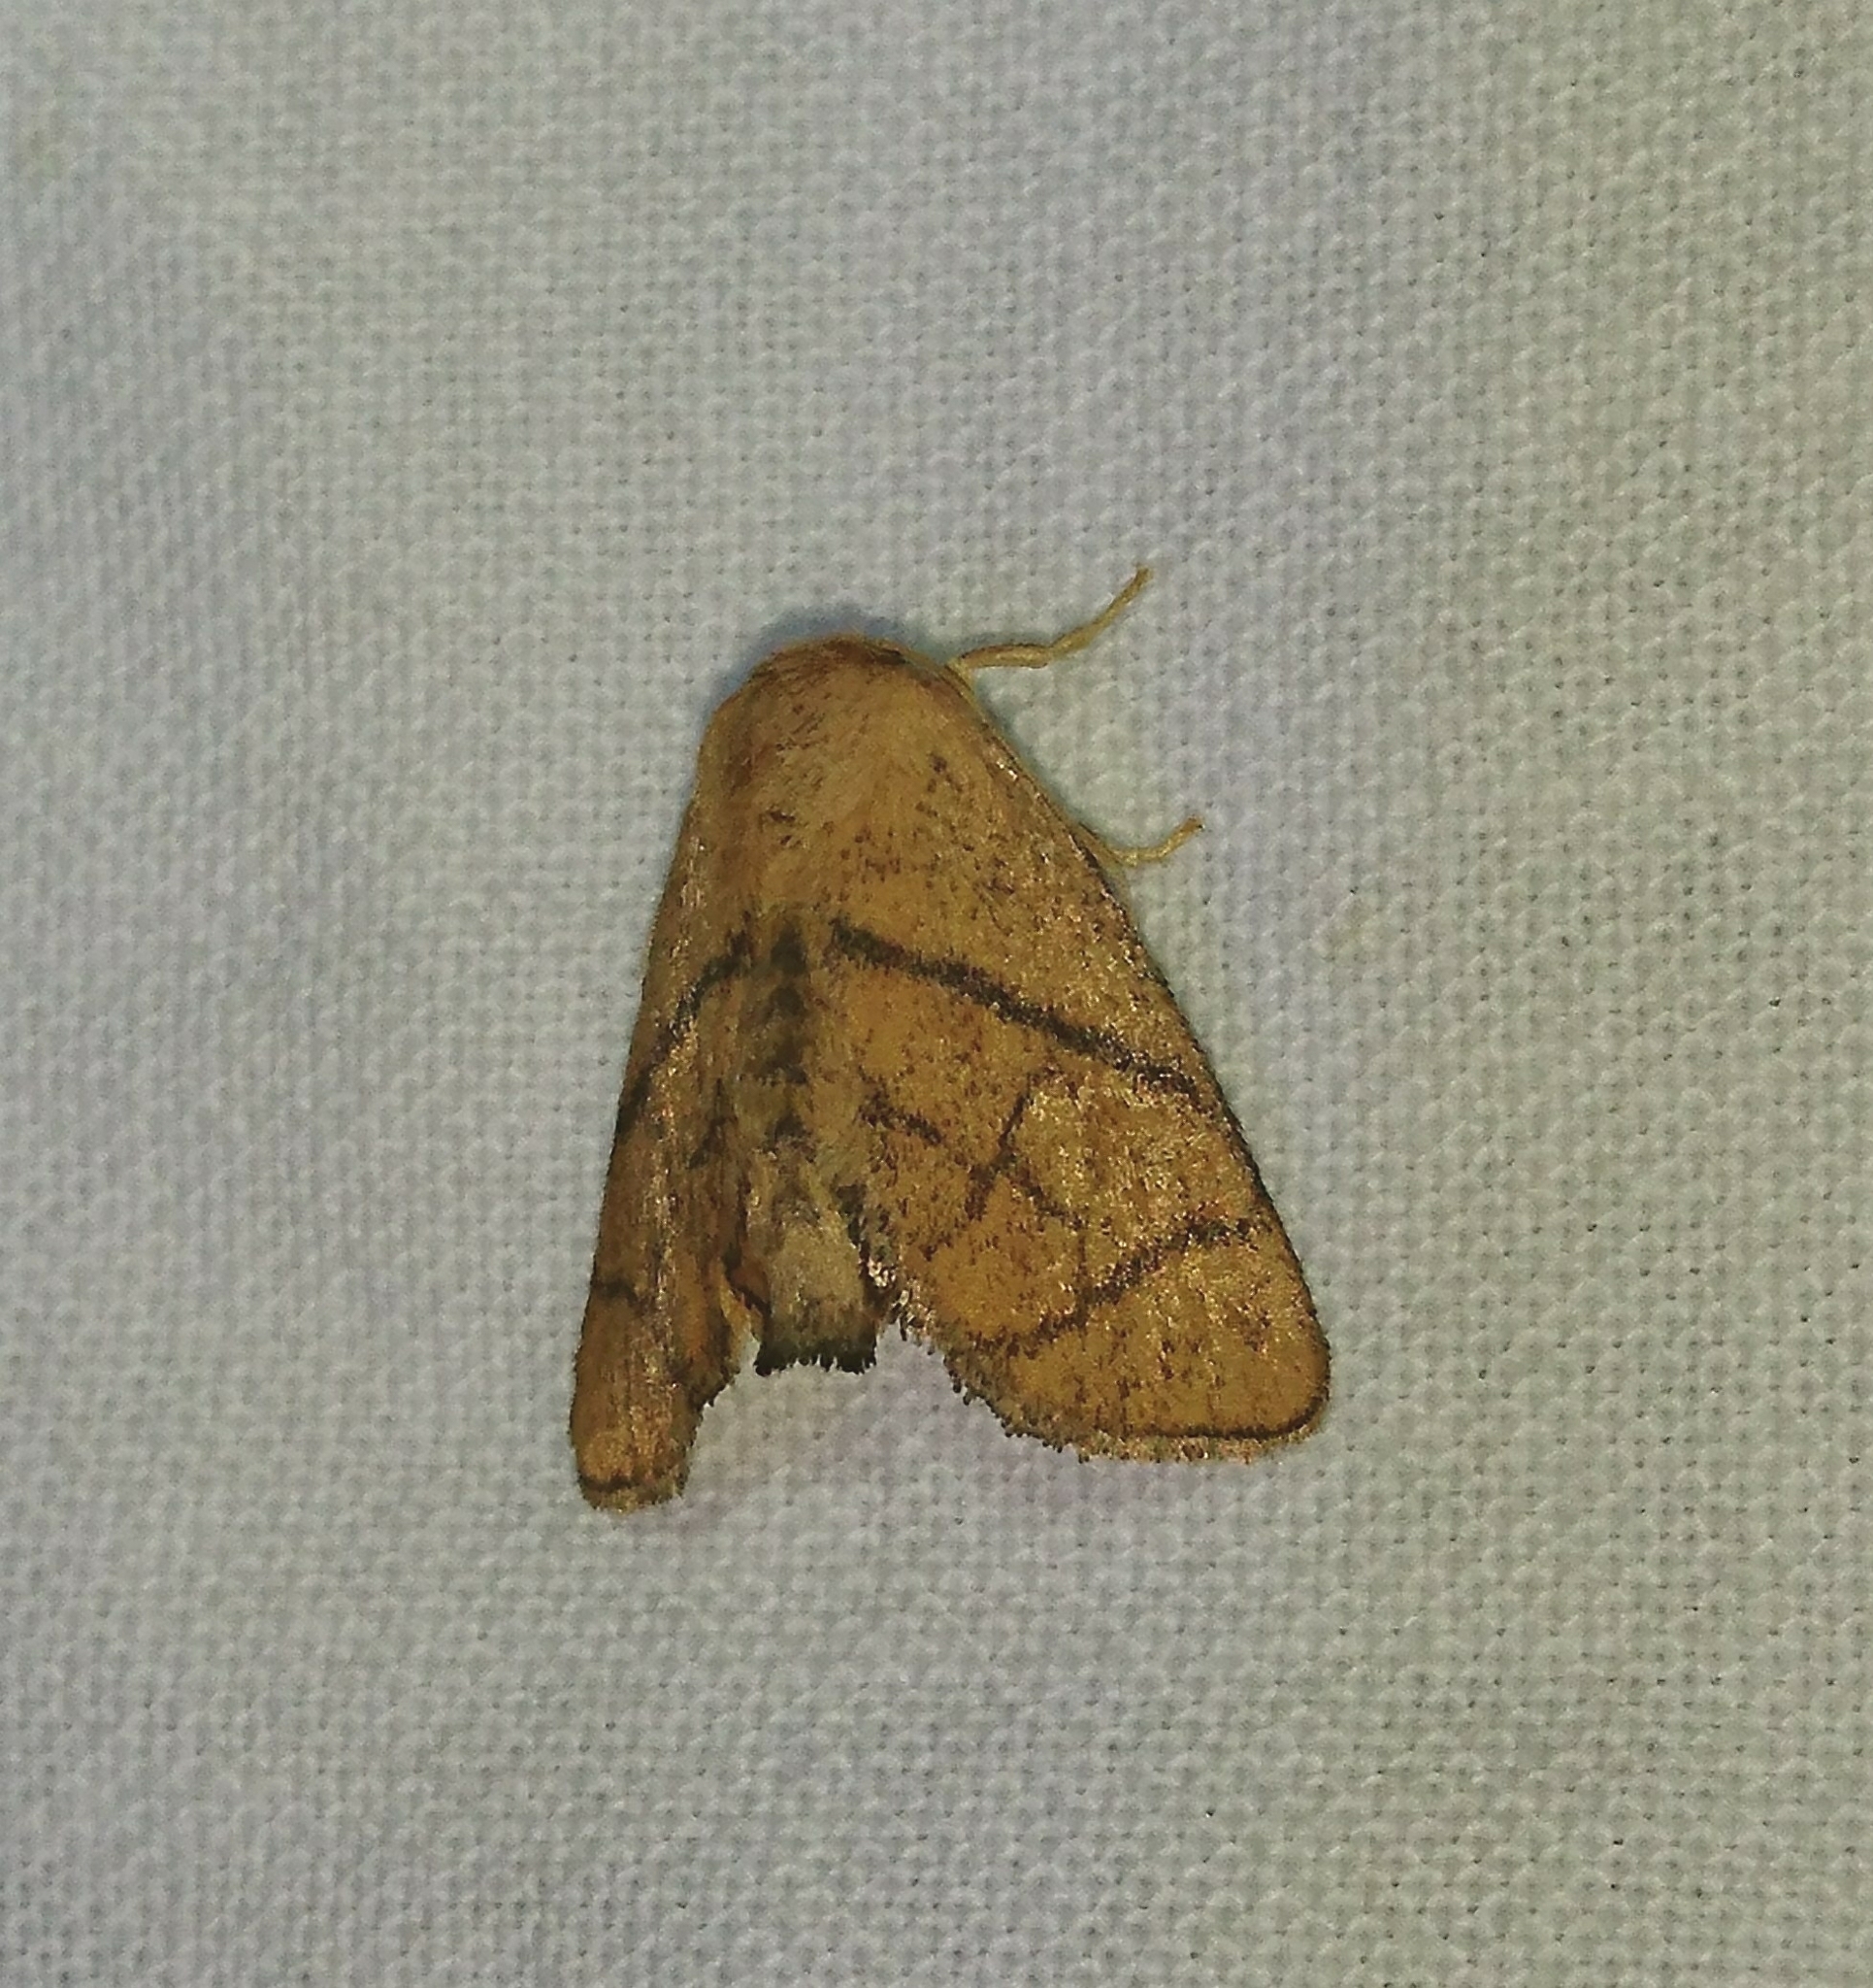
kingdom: Animalia
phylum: Arthropoda
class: Insecta
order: Lepidoptera
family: Limacodidae
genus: Apoda
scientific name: Apoda y-inversa
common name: Yellow-collared slug moth
